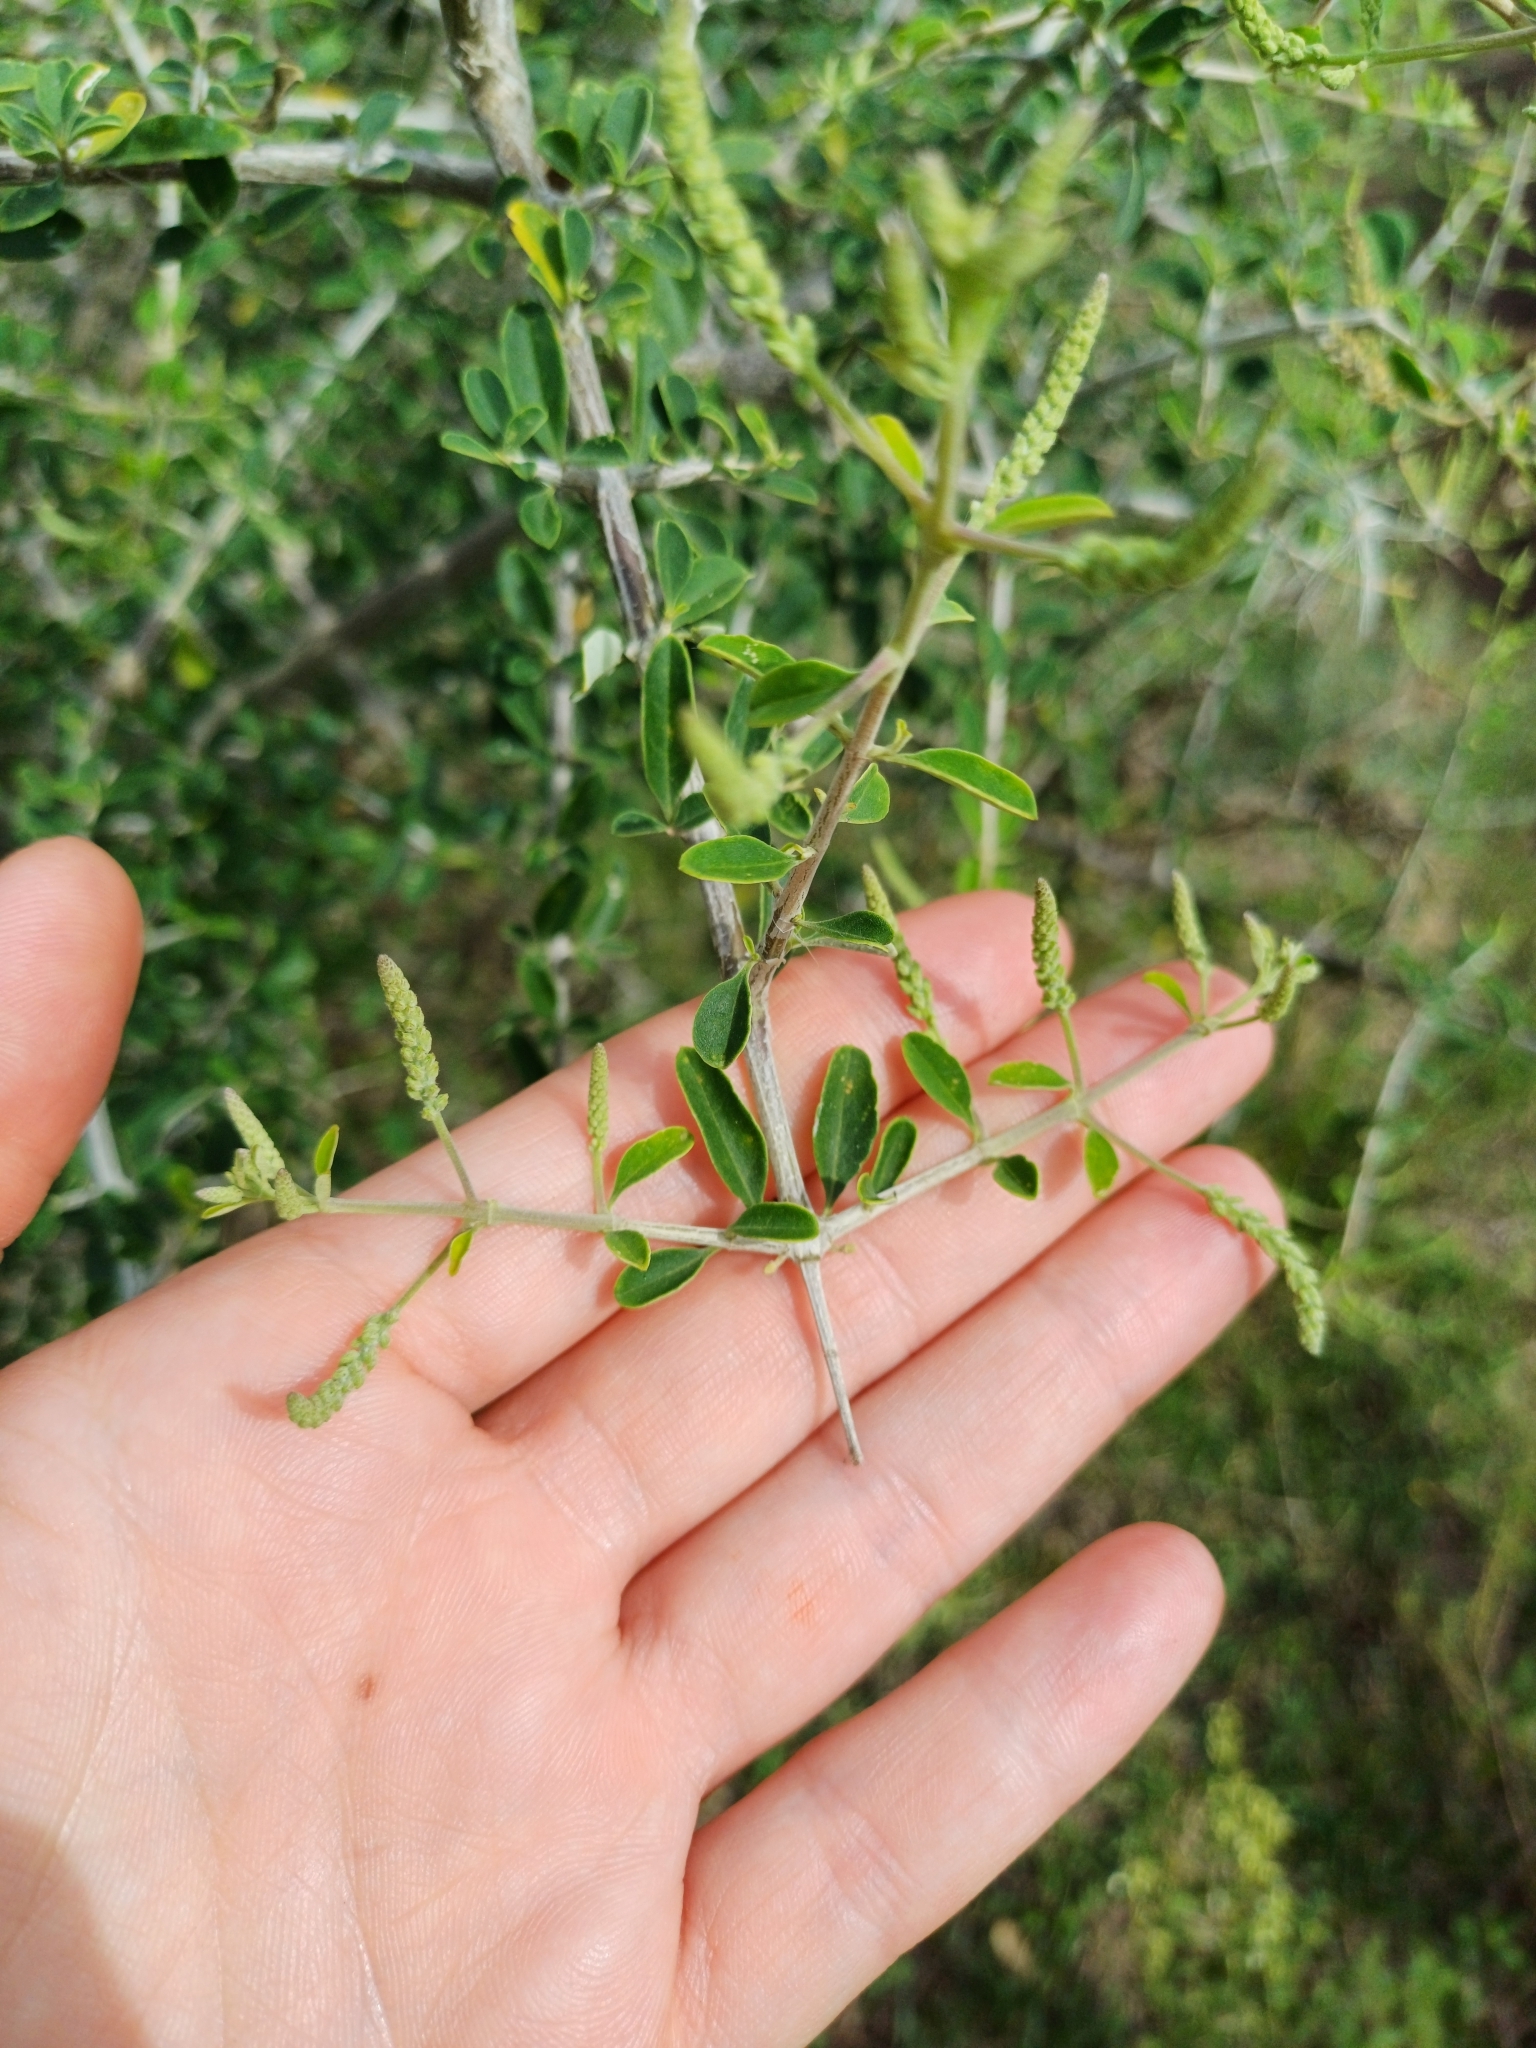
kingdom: Plantae
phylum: Tracheophyta
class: Magnoliopsida
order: Lamiales
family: Verbenaceae
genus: Aloysia
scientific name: Aloysia gratissima
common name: Common bee-brush
